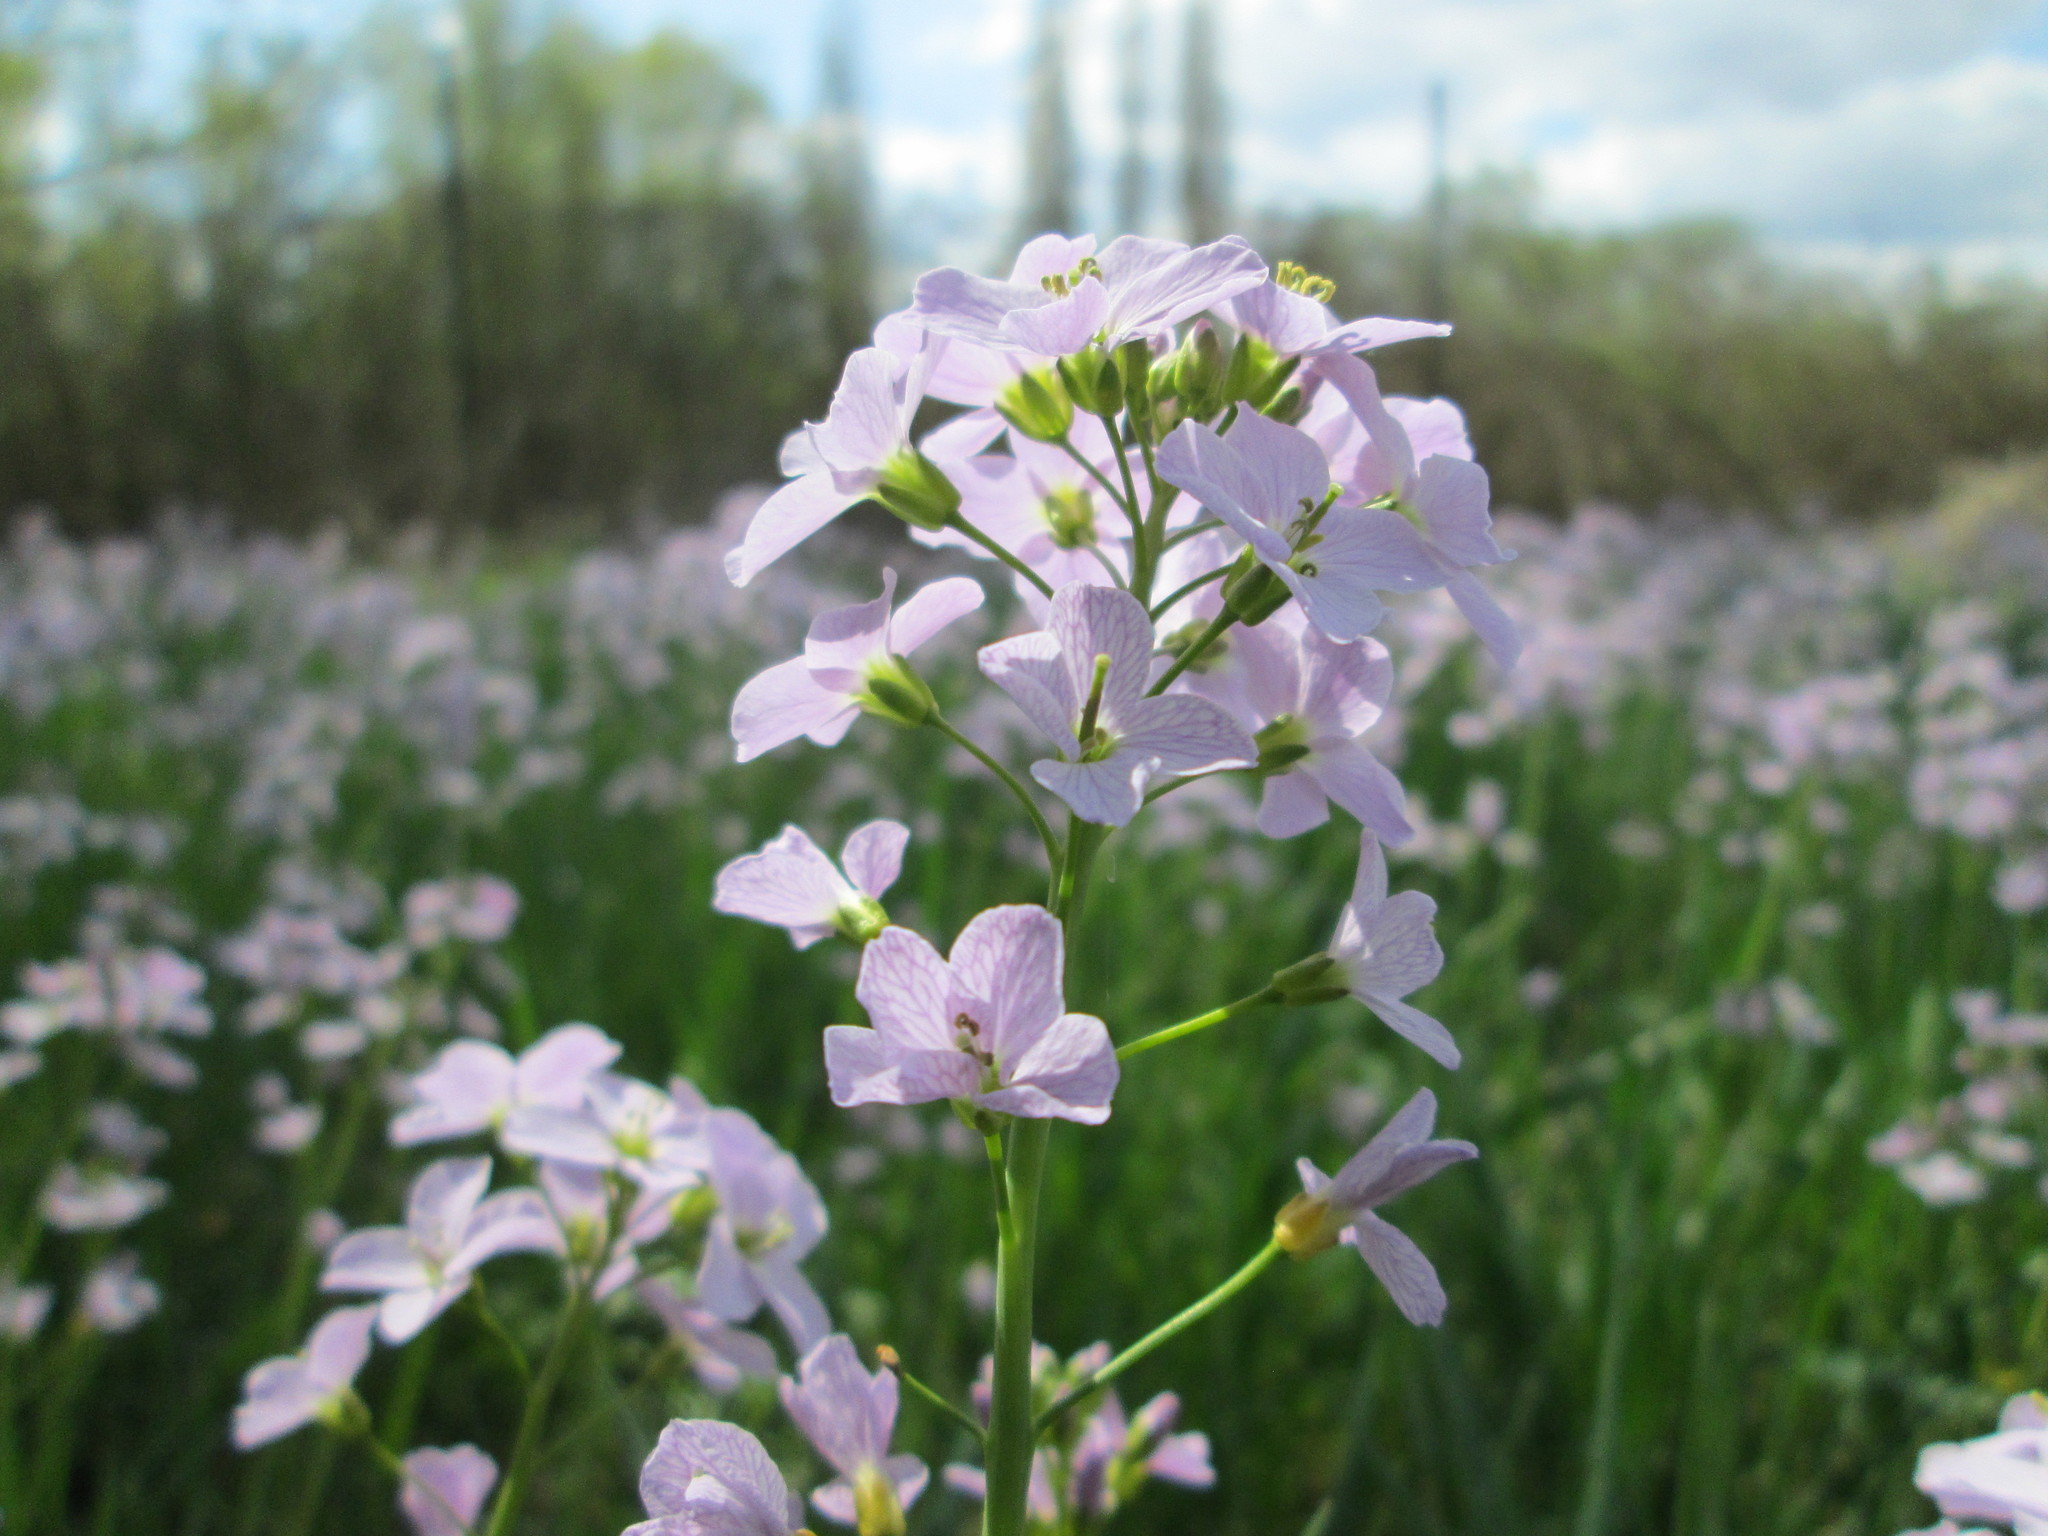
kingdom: Plantae
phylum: Tracheophyta
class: Magnoliopsida
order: Brassicales
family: Brassicaceae
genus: Cardamine
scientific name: Cardamine pratensis
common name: Cuckoo flower
